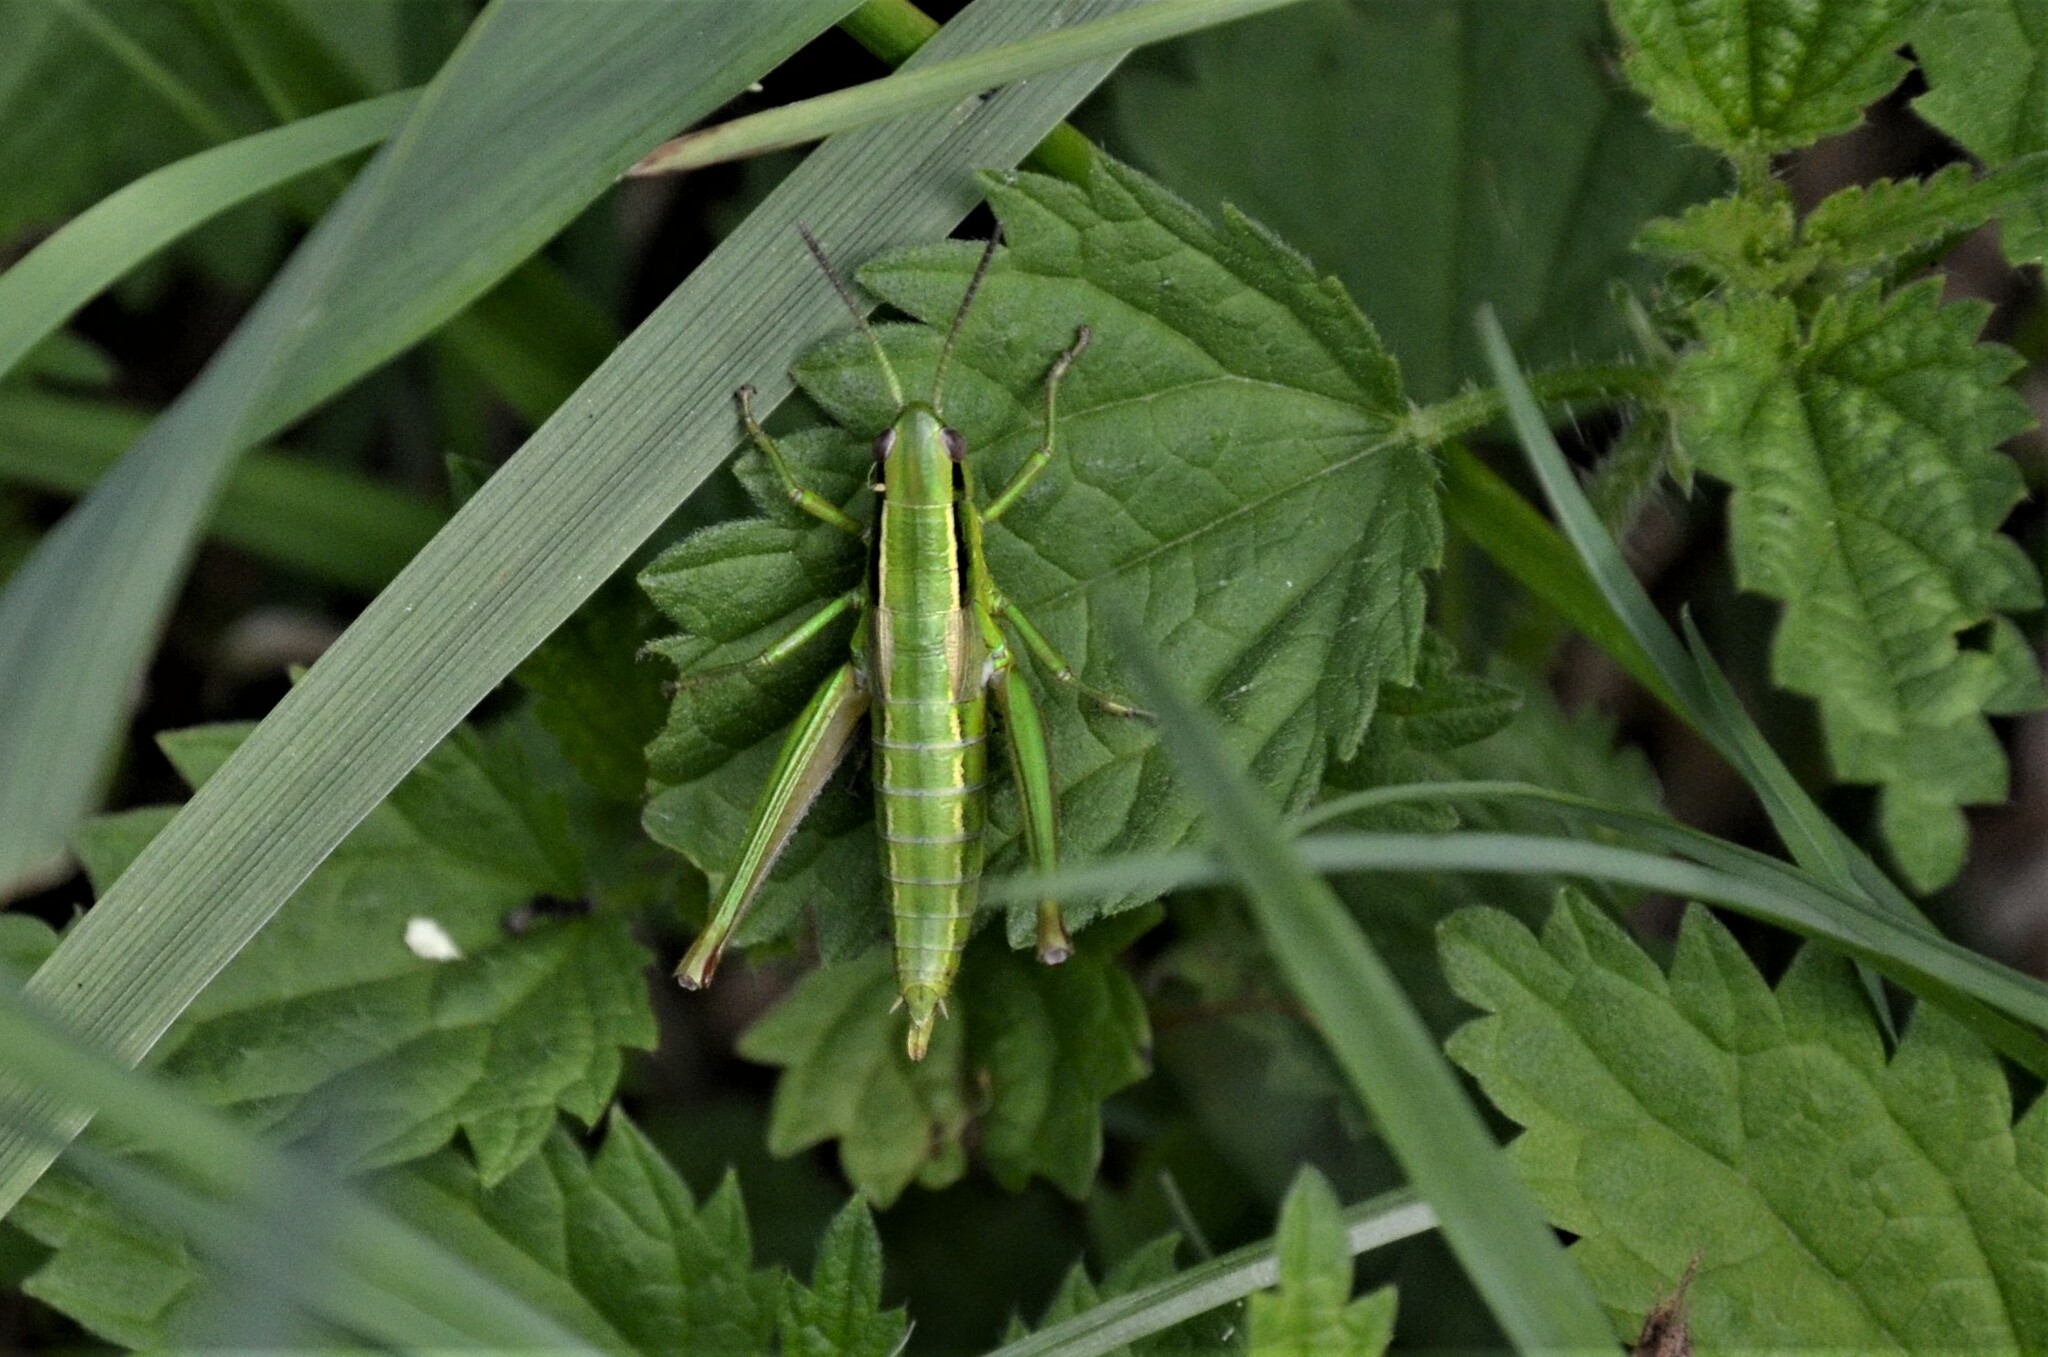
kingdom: Animalia
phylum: Arthropoda
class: Insecta
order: Orthoptera
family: Acrididae
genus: Euthystira
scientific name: Euthystira brachyptera
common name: Small gold grasshopper
